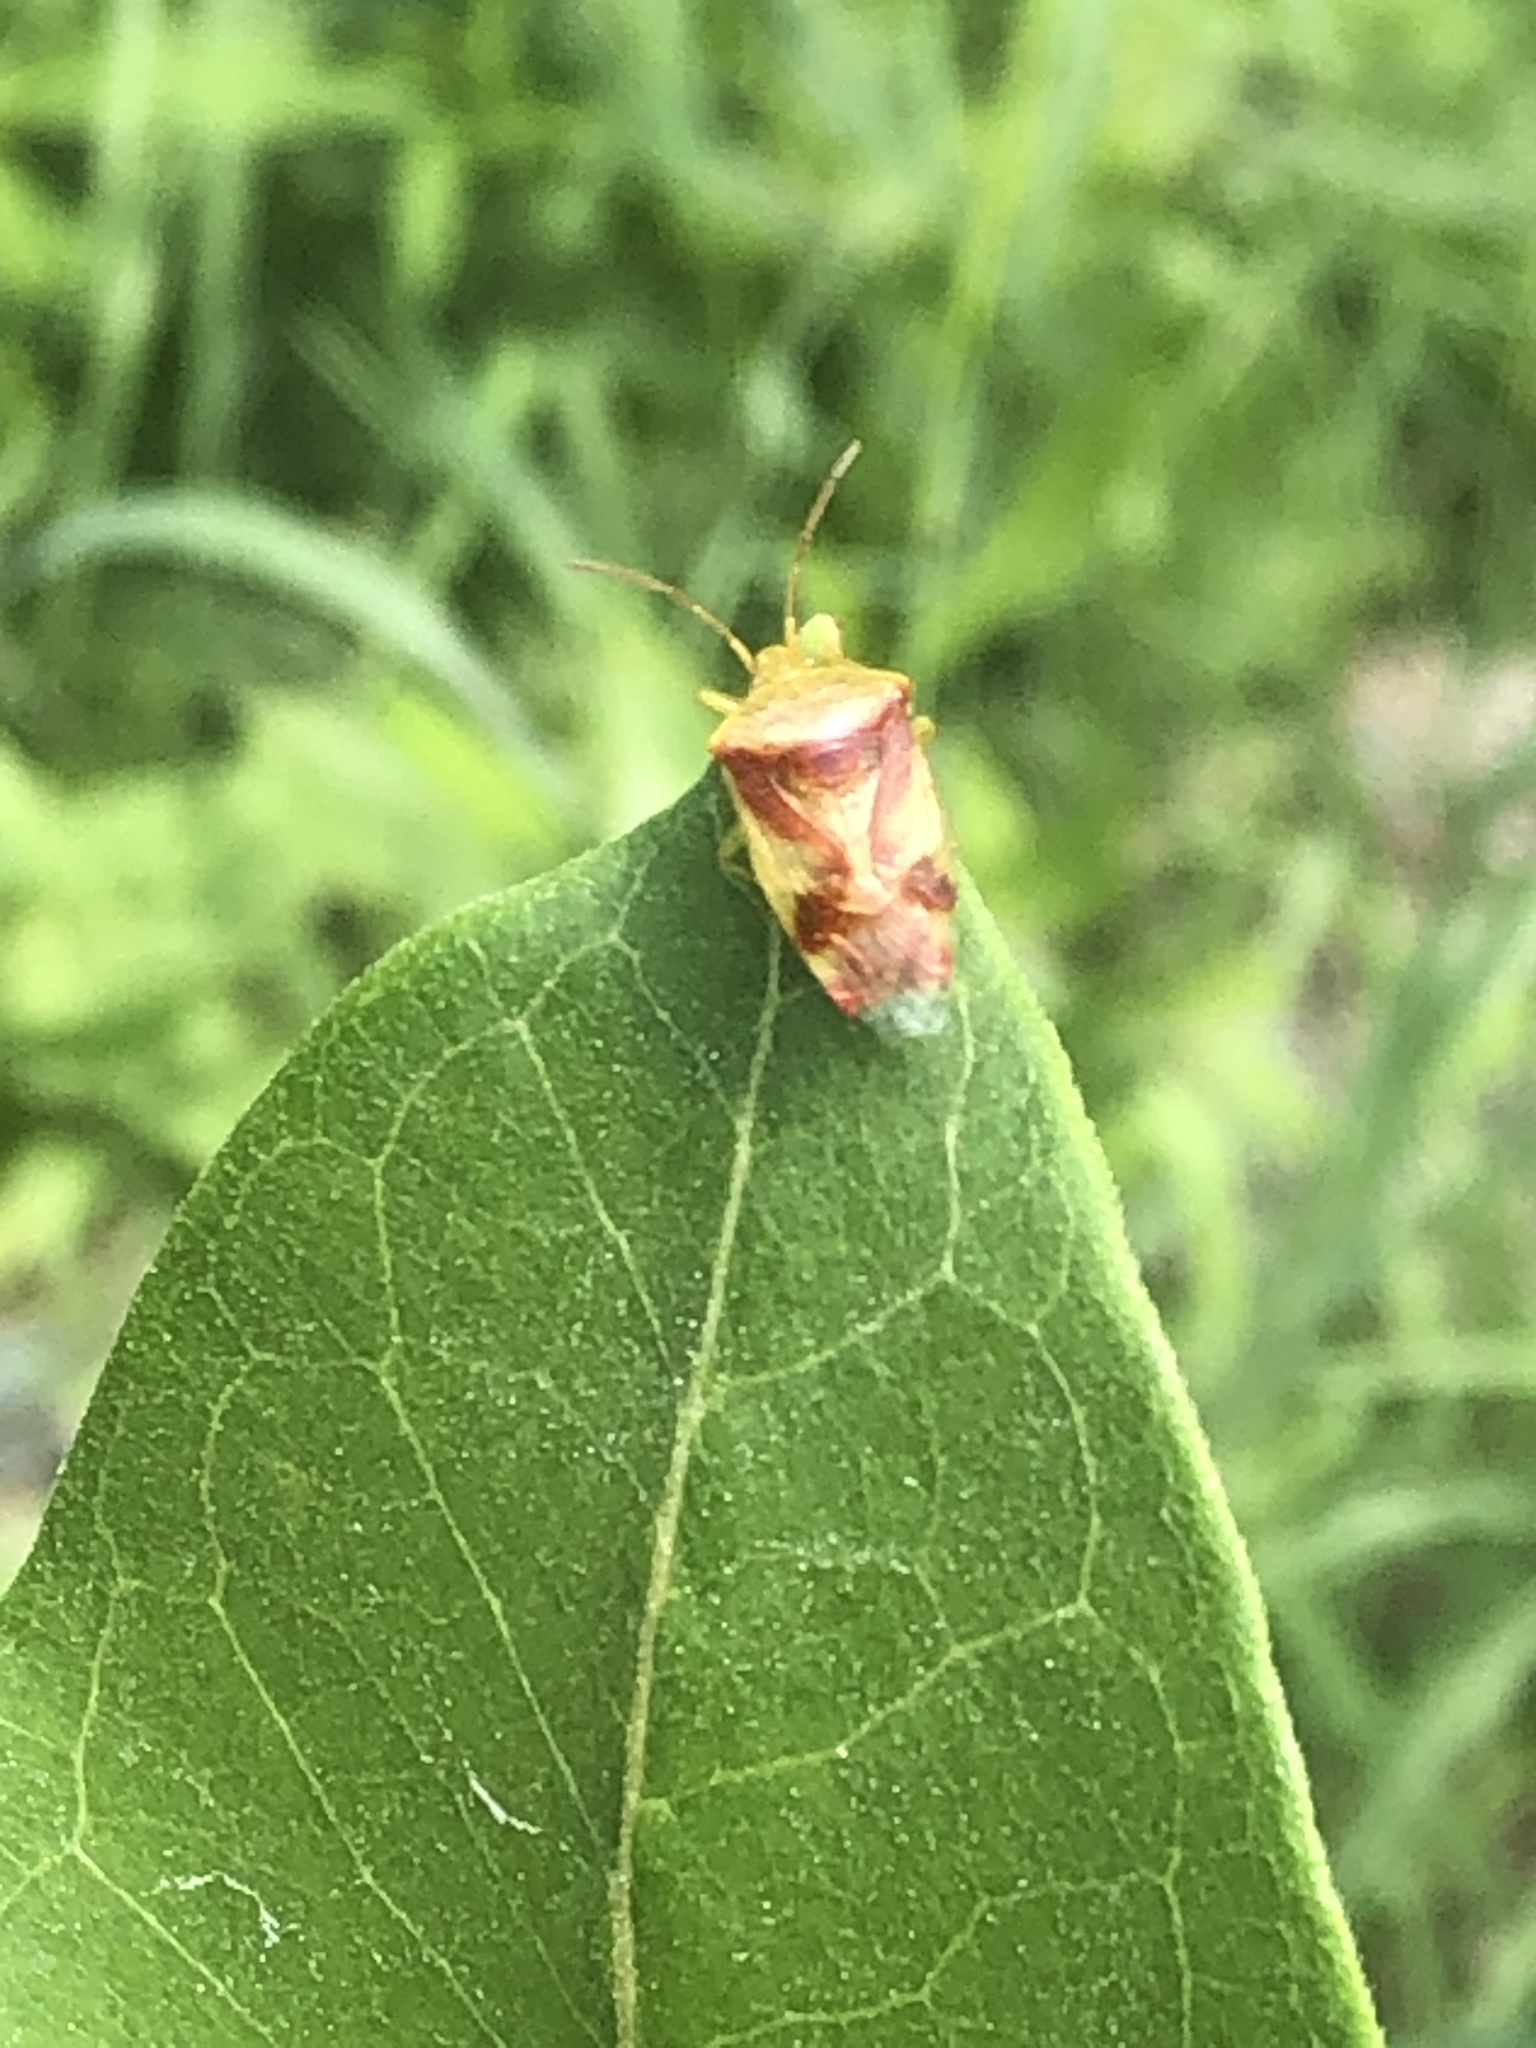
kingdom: Animalia
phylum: Arthropoda
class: Insecta
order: Hemiptera
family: Acanthosomatidae
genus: Elasmostethus
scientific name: Elasmostethus cruciatus
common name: Red-cross shield bug
